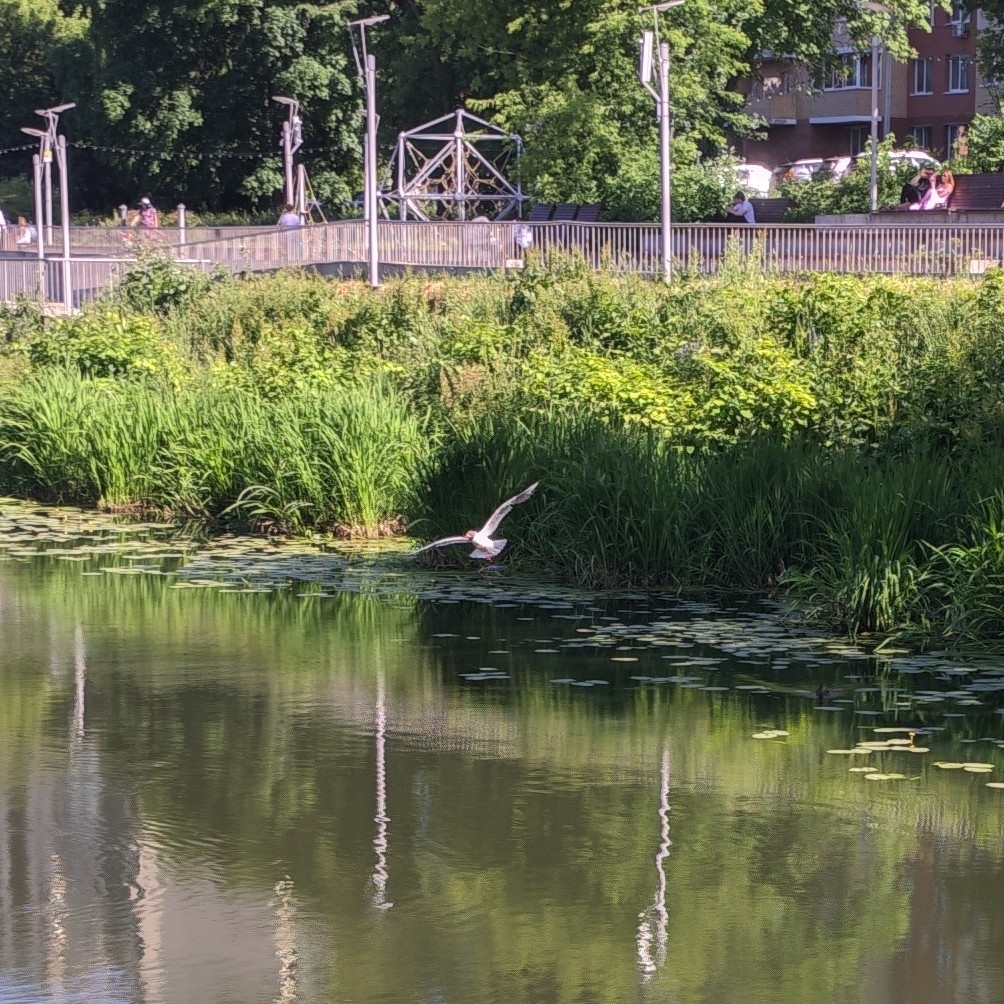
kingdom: Animalia
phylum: Chordata
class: Aves
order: Charadriiformes
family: Laridae
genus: Chroicocephalus
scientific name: Chroicocephalus ridibundus
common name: Black-headed gull
